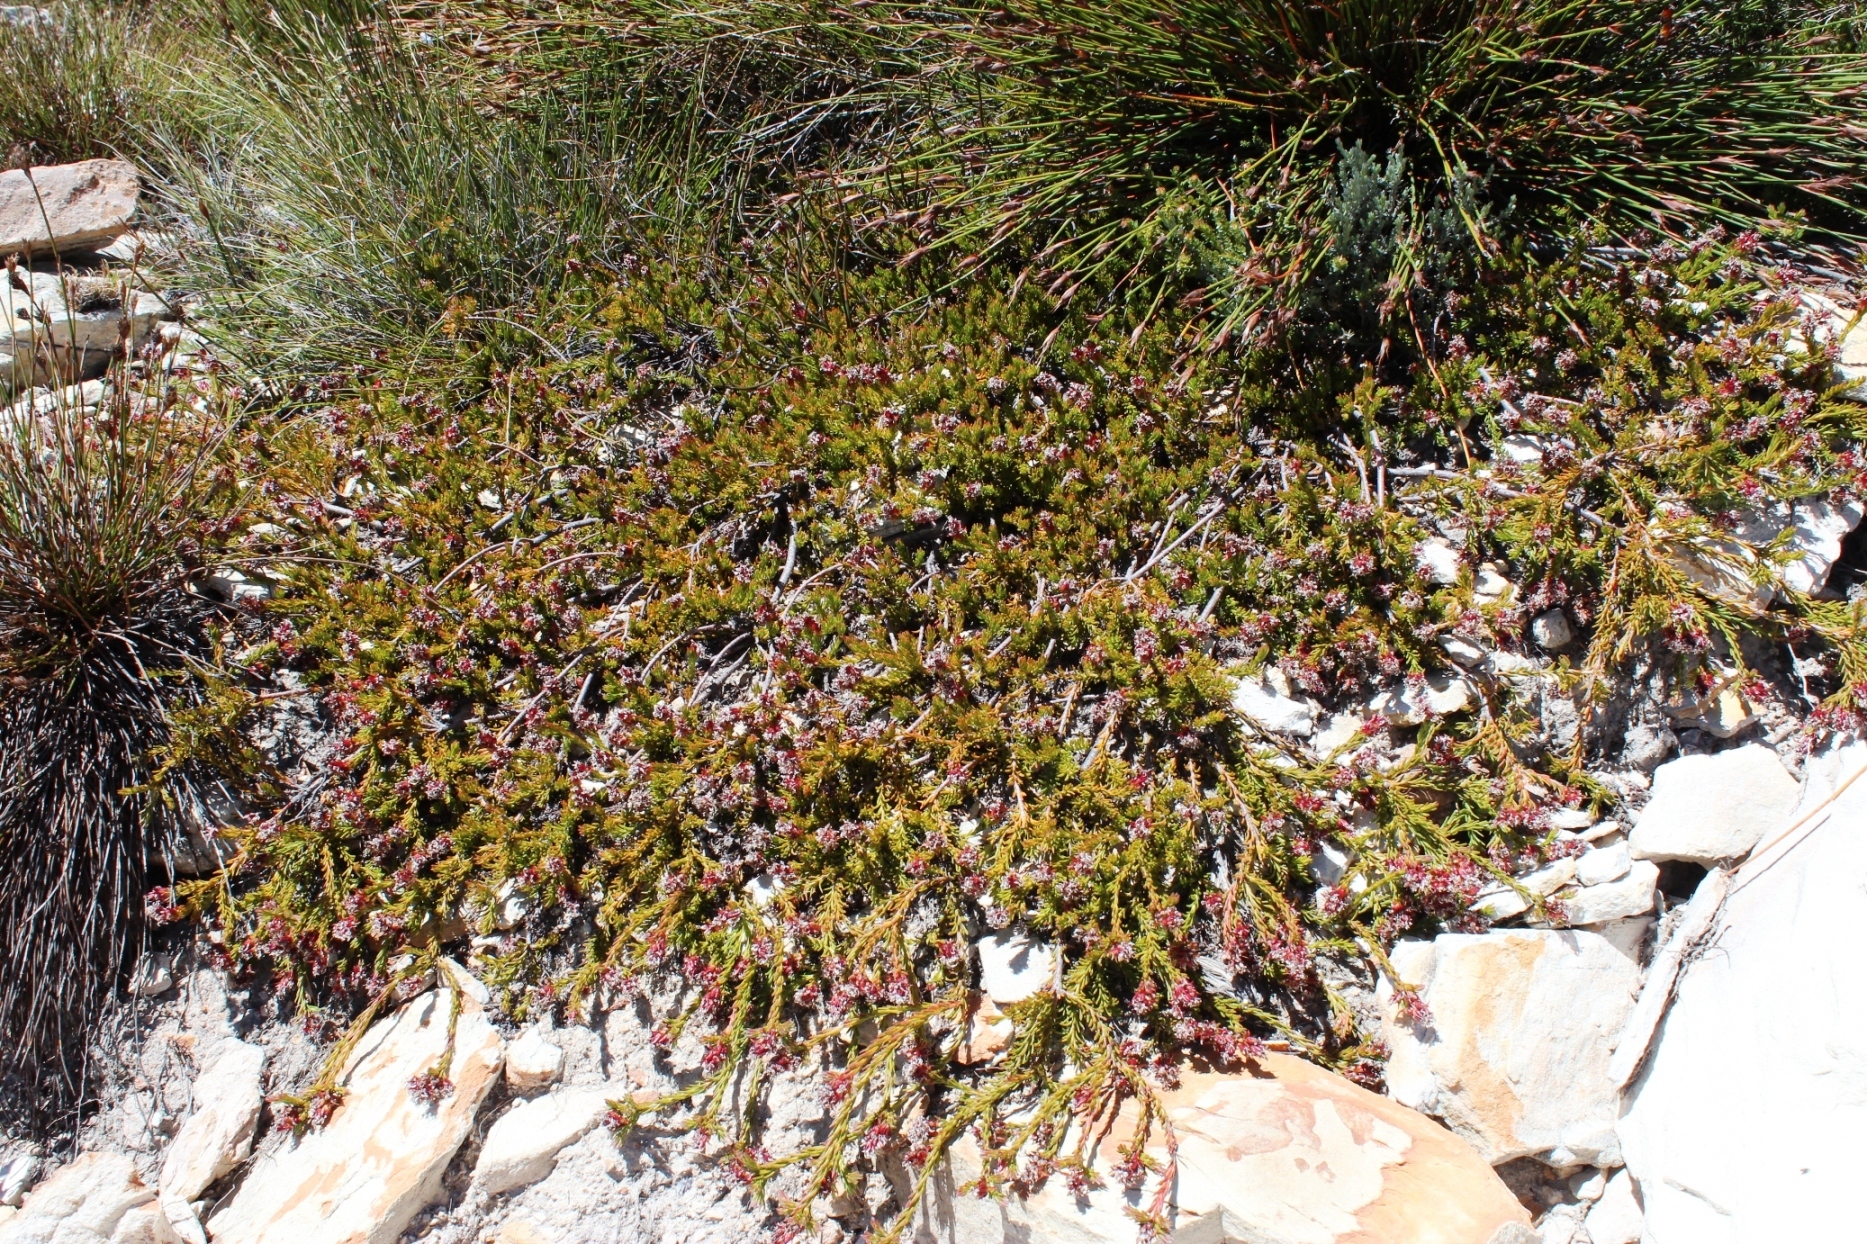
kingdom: Plantae
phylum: Tracheophyta
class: Magnoliopsida
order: Proteales
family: Proteaceae
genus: Spatalla
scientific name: Spatalla confusa
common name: Long-tube spoon
